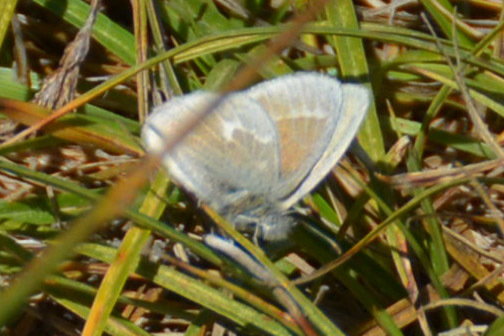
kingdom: Animalia
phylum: Arthropoda
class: Insecta
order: Lepidoptera
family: Nymphalidae
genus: Coenonympha
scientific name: Coenonympha california
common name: Common ringlet
